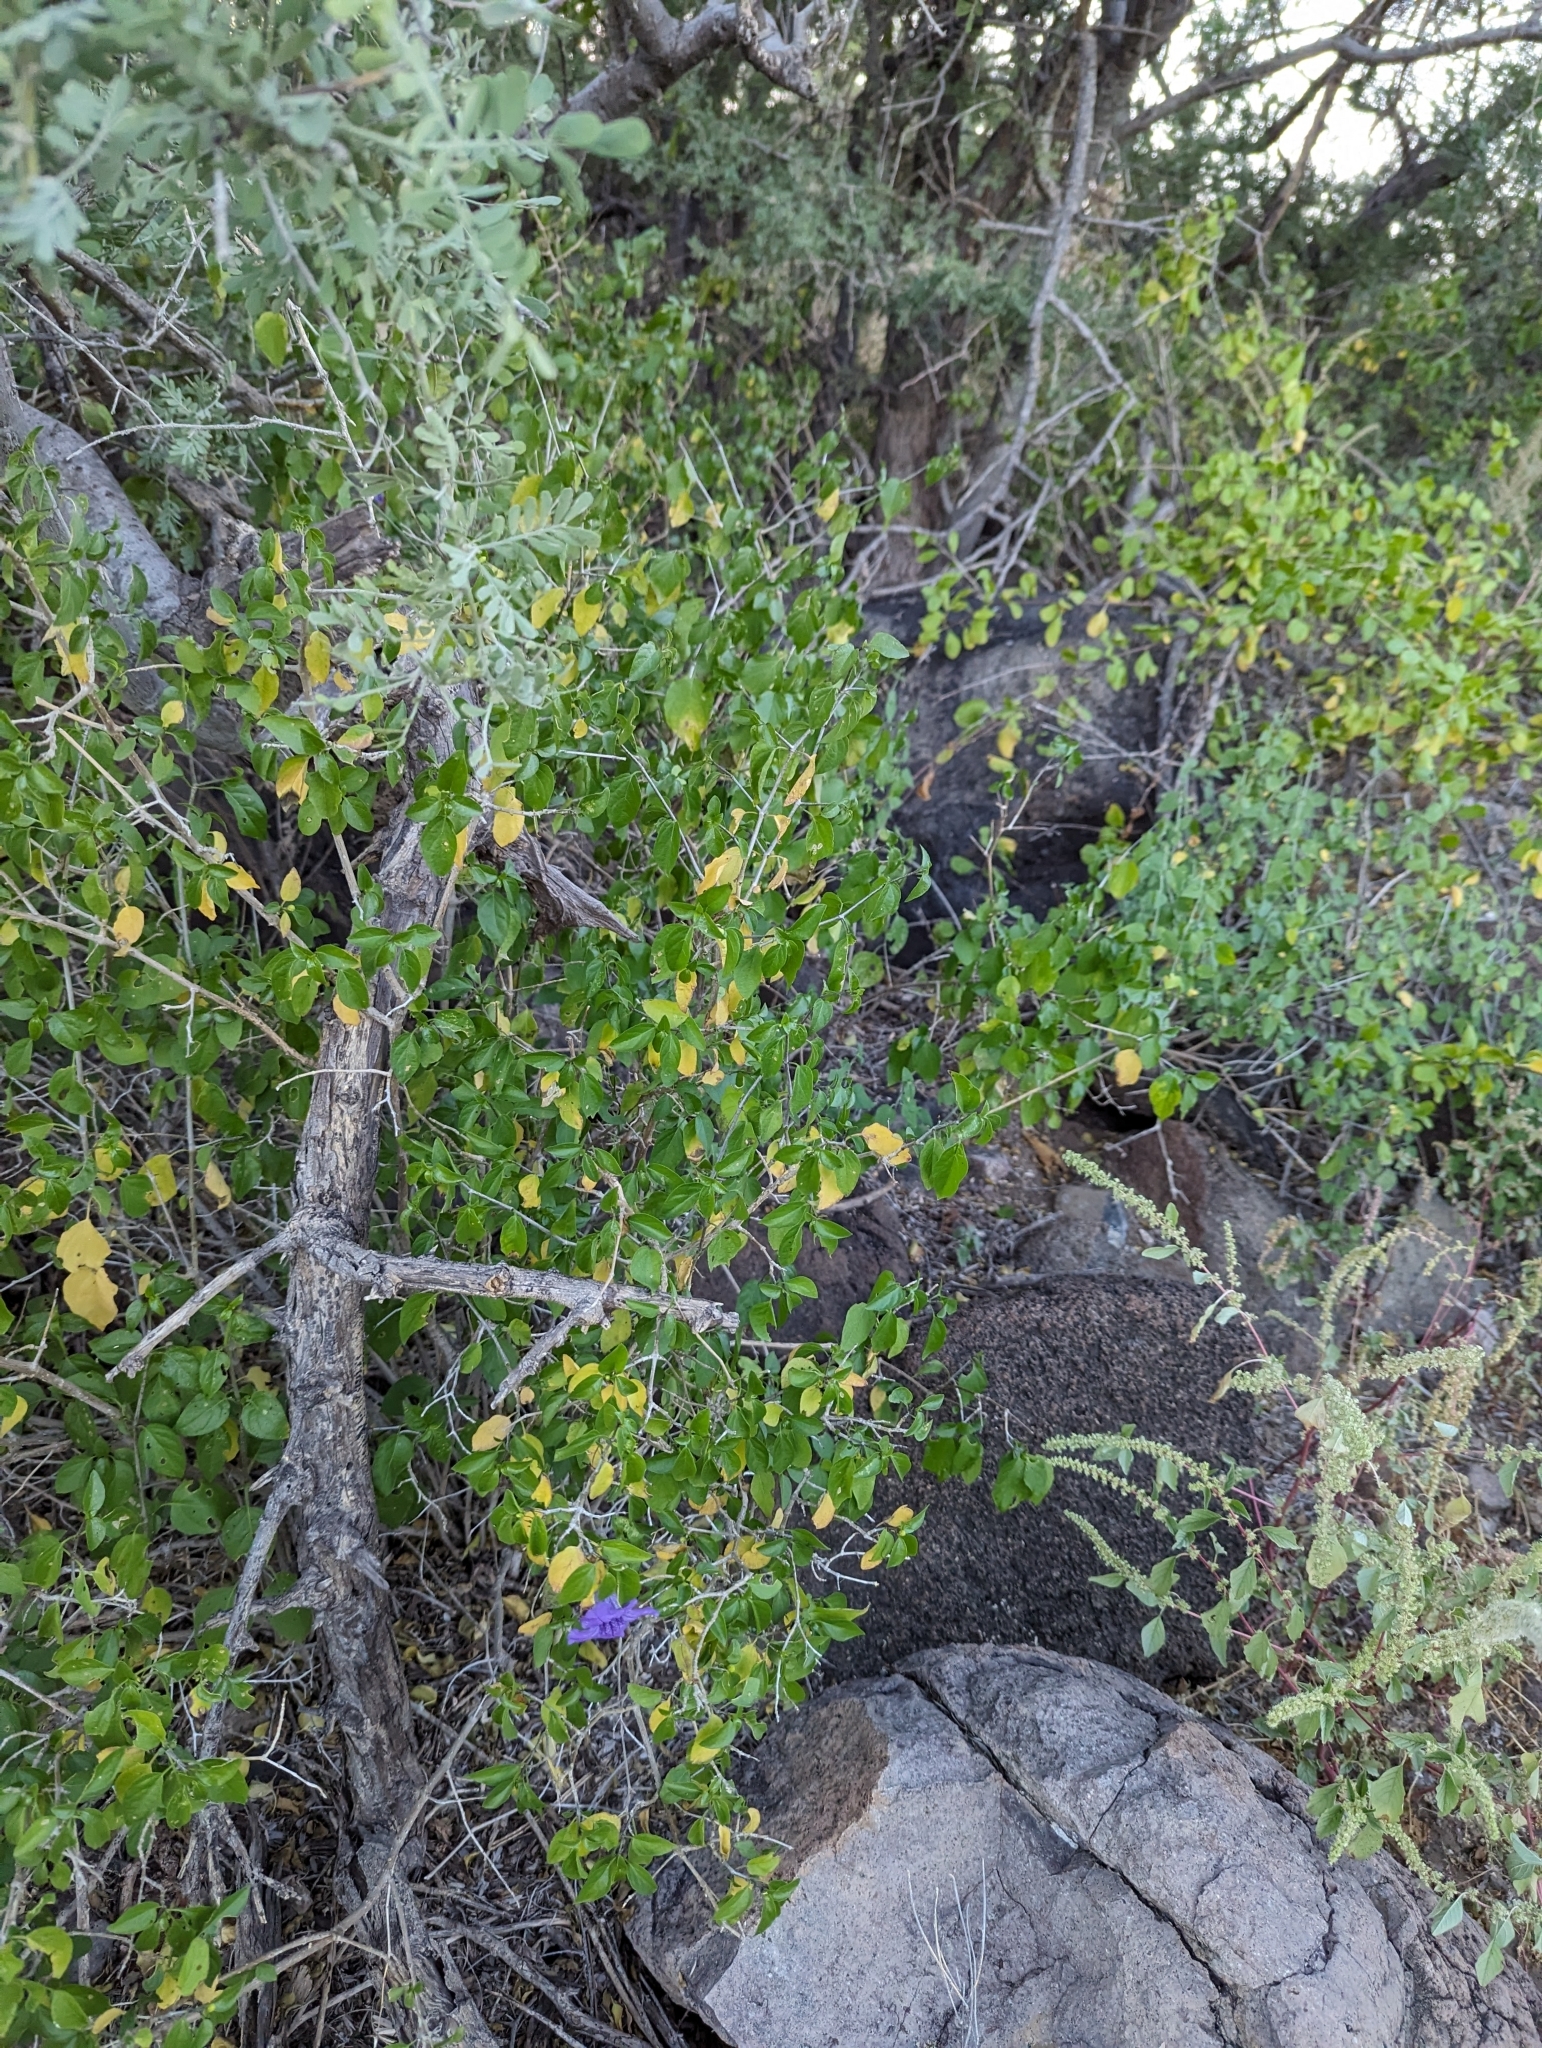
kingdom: Plantae
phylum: Tracheophyta
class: Magnoliopsida
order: Lamiales
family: Acanthaceae
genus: Ruellia
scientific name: Ruellia californica
